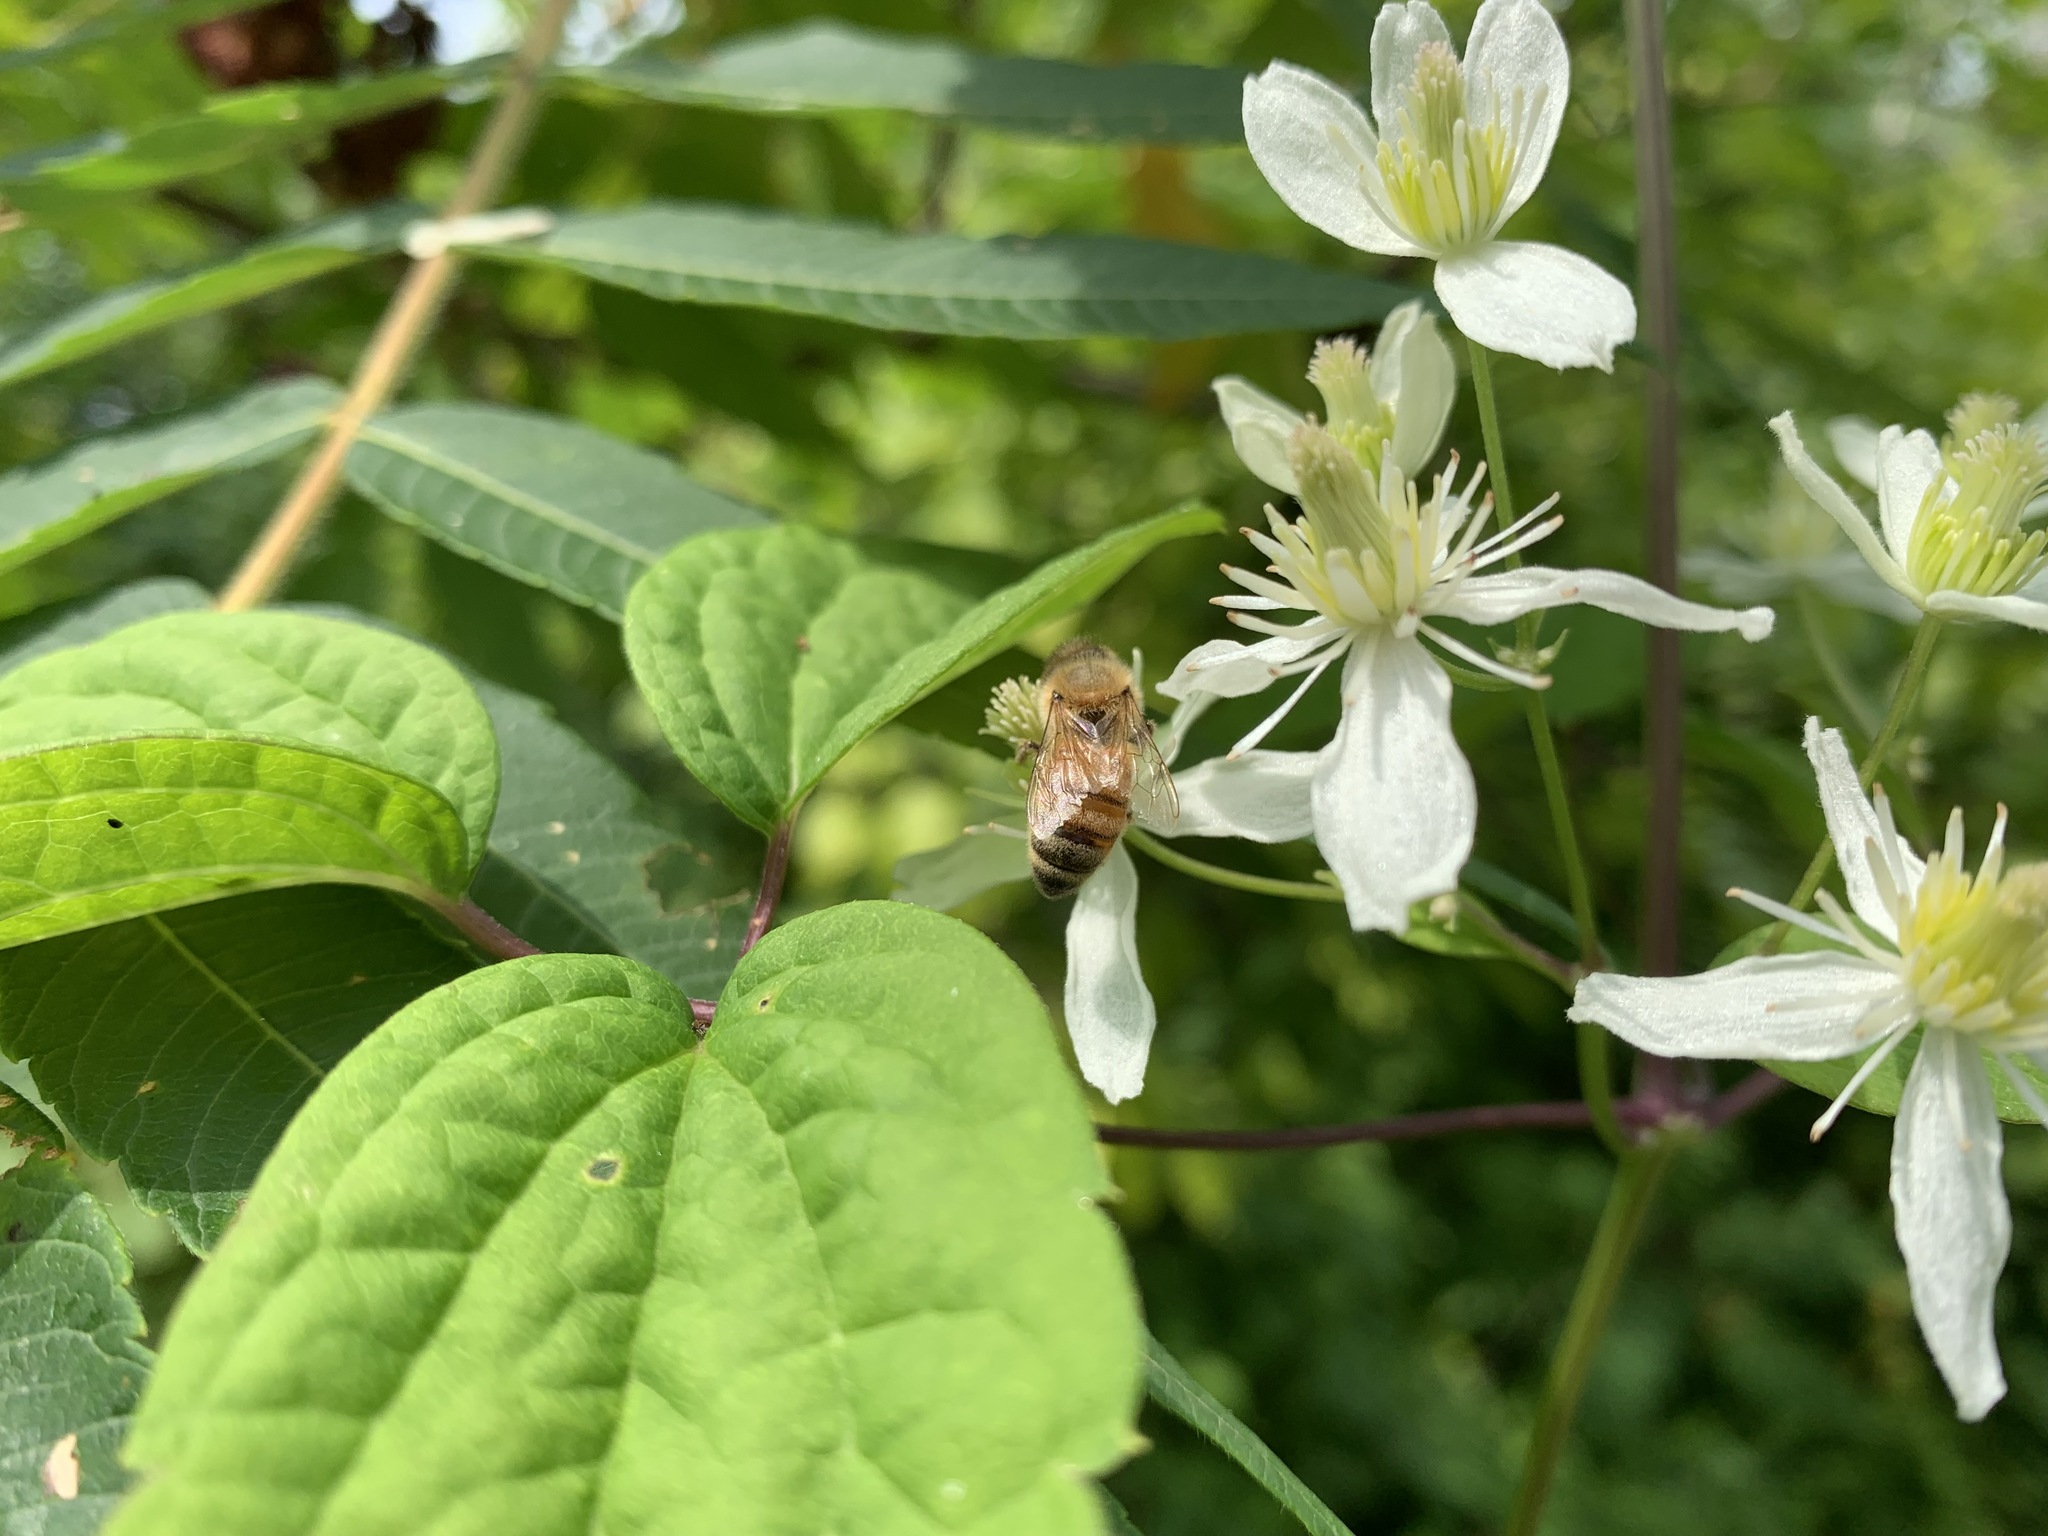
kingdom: Animalia
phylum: Arthropoda
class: Insecta
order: Hymenoptera
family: Apidae
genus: Apis
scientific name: Apis mellifera
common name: Honey bee
